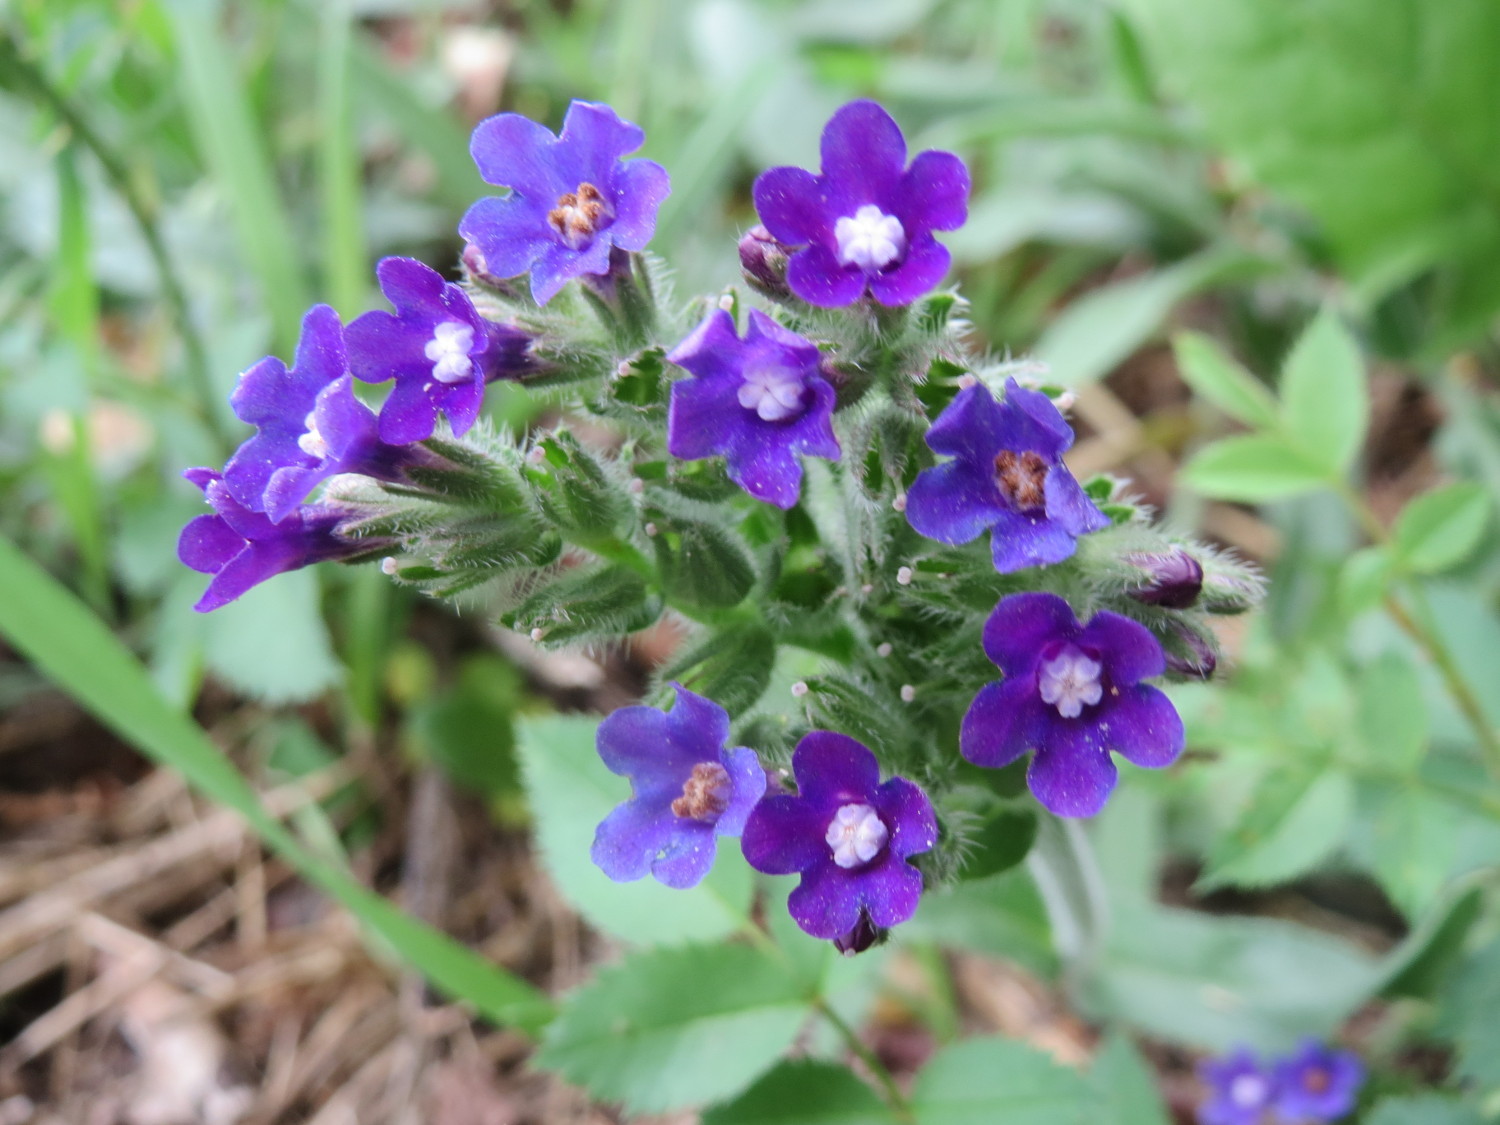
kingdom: Plantae
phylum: Tracheophyta
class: Magnoliopsida
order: Boraginales
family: Boraginaceae
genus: Anchusa
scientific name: Anchusa officinalis
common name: Alkanet
